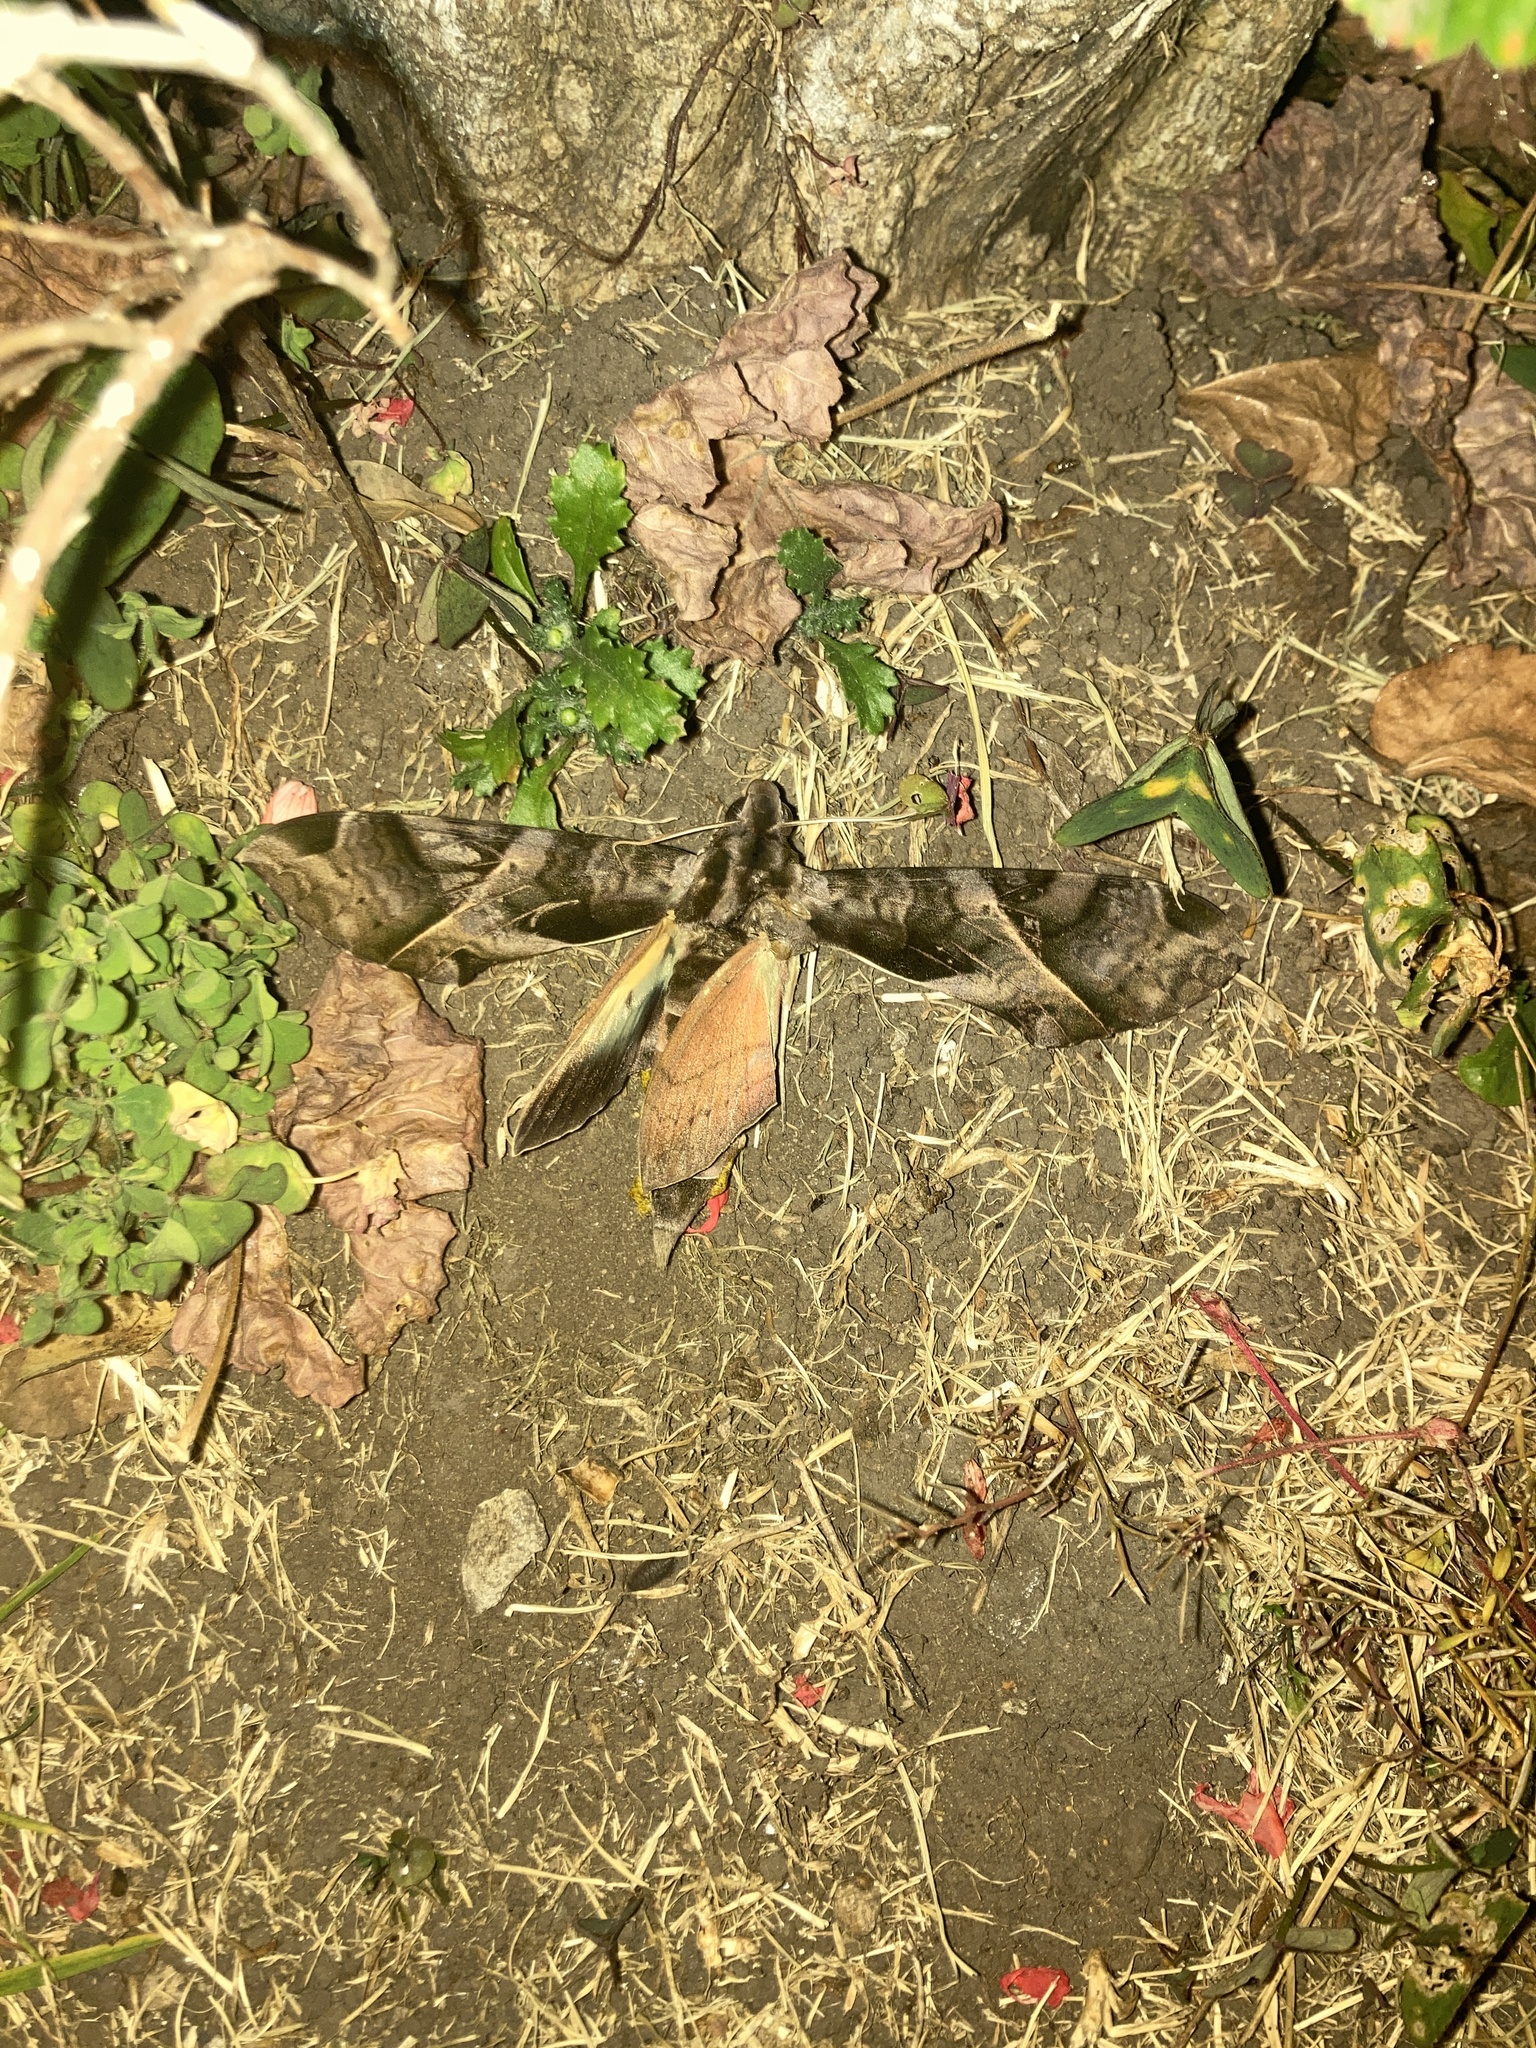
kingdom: Animalia
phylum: Arthropoda
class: Insecta
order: Lepidoptera
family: Sphingidae
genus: Eumorpha
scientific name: Eumorpha anchemolus
